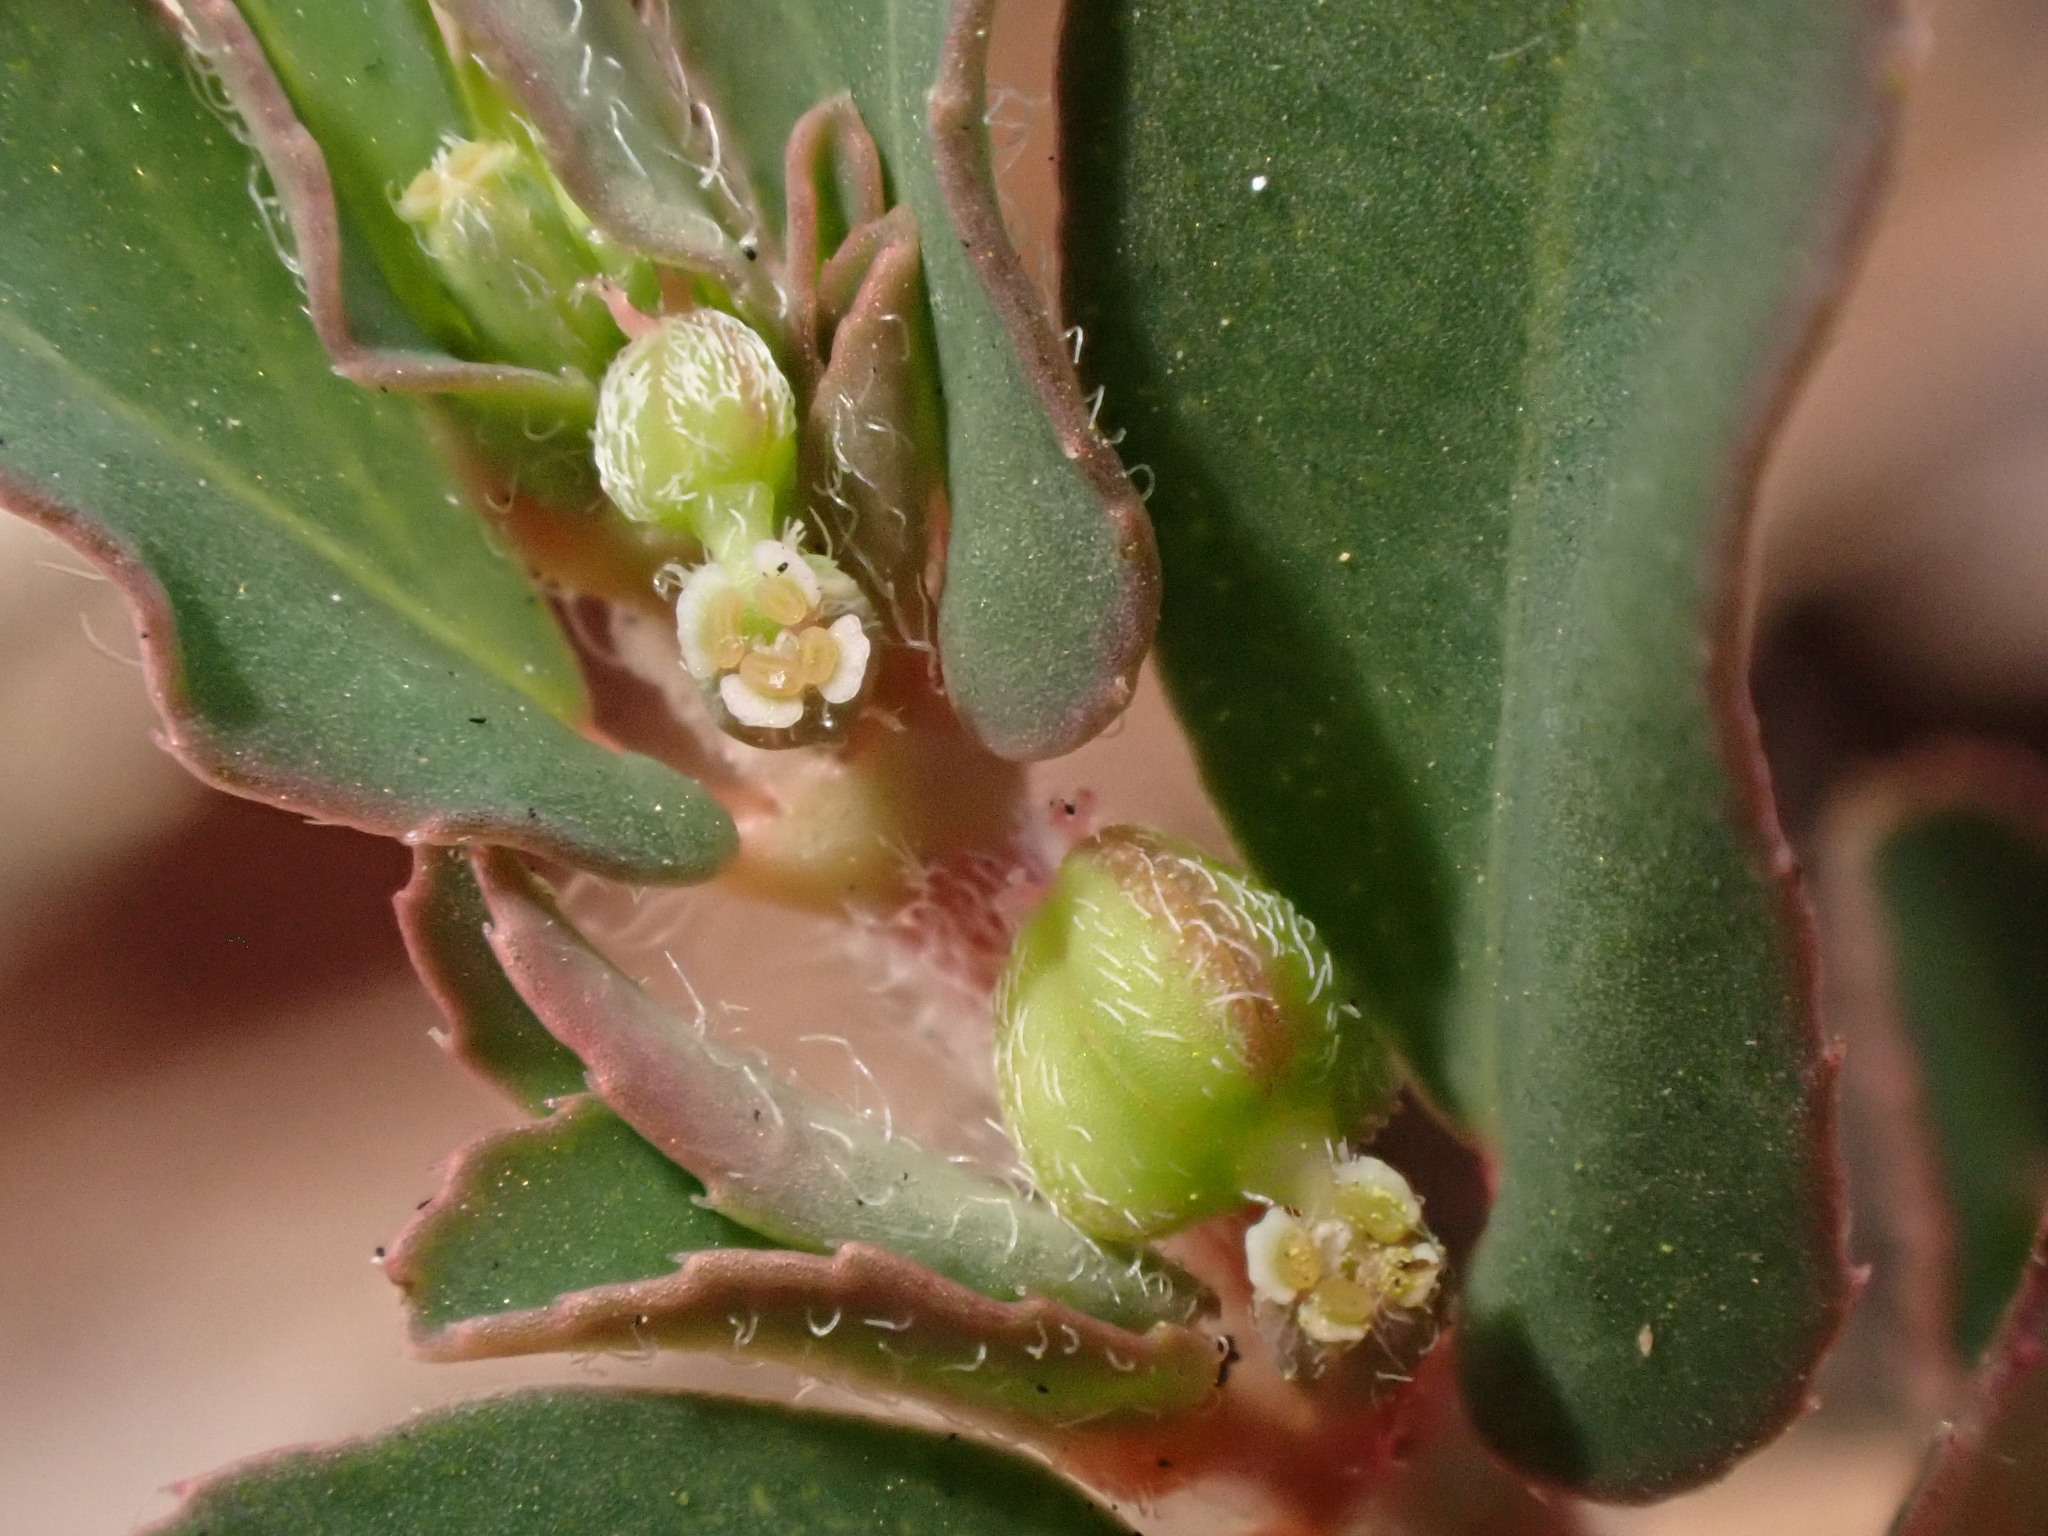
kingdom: Plantae
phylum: Tracheophyta
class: Magnoliopsida
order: Malpighiales
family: Euphorbiaceae
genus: Euphorbia
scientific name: Euphorbia maculata
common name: Spotted spurge
